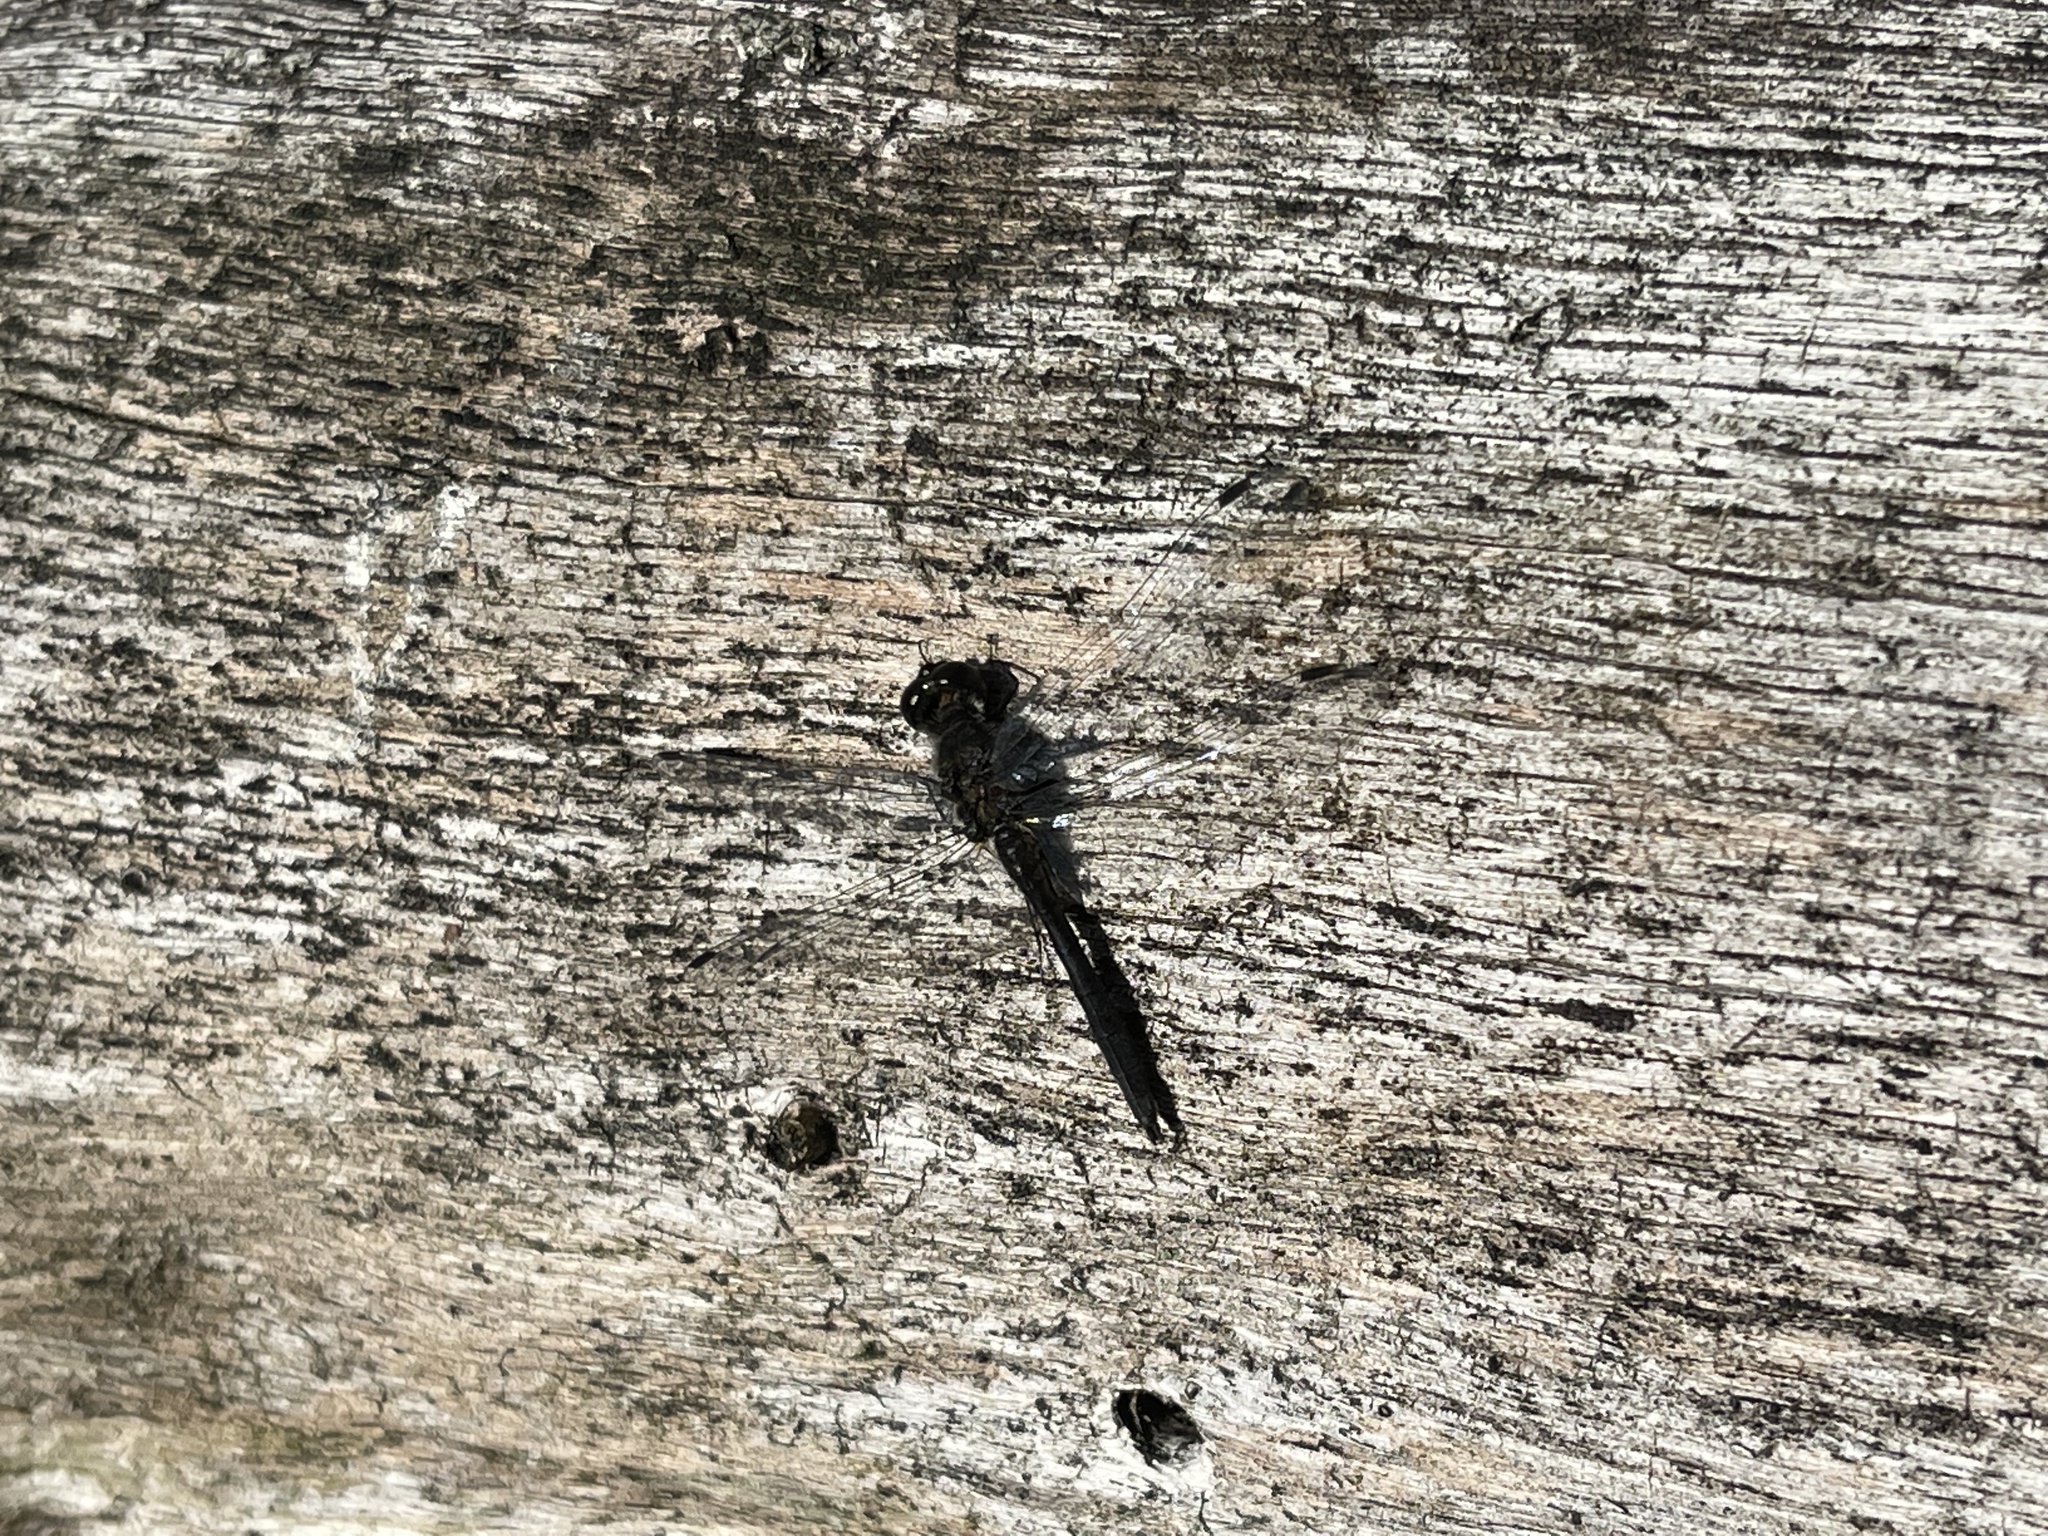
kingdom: Animalia
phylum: Arthropoda
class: Insecta
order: Odonata
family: Libellulidae
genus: Sympetrum
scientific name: Sympetrum danae
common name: Black darter
